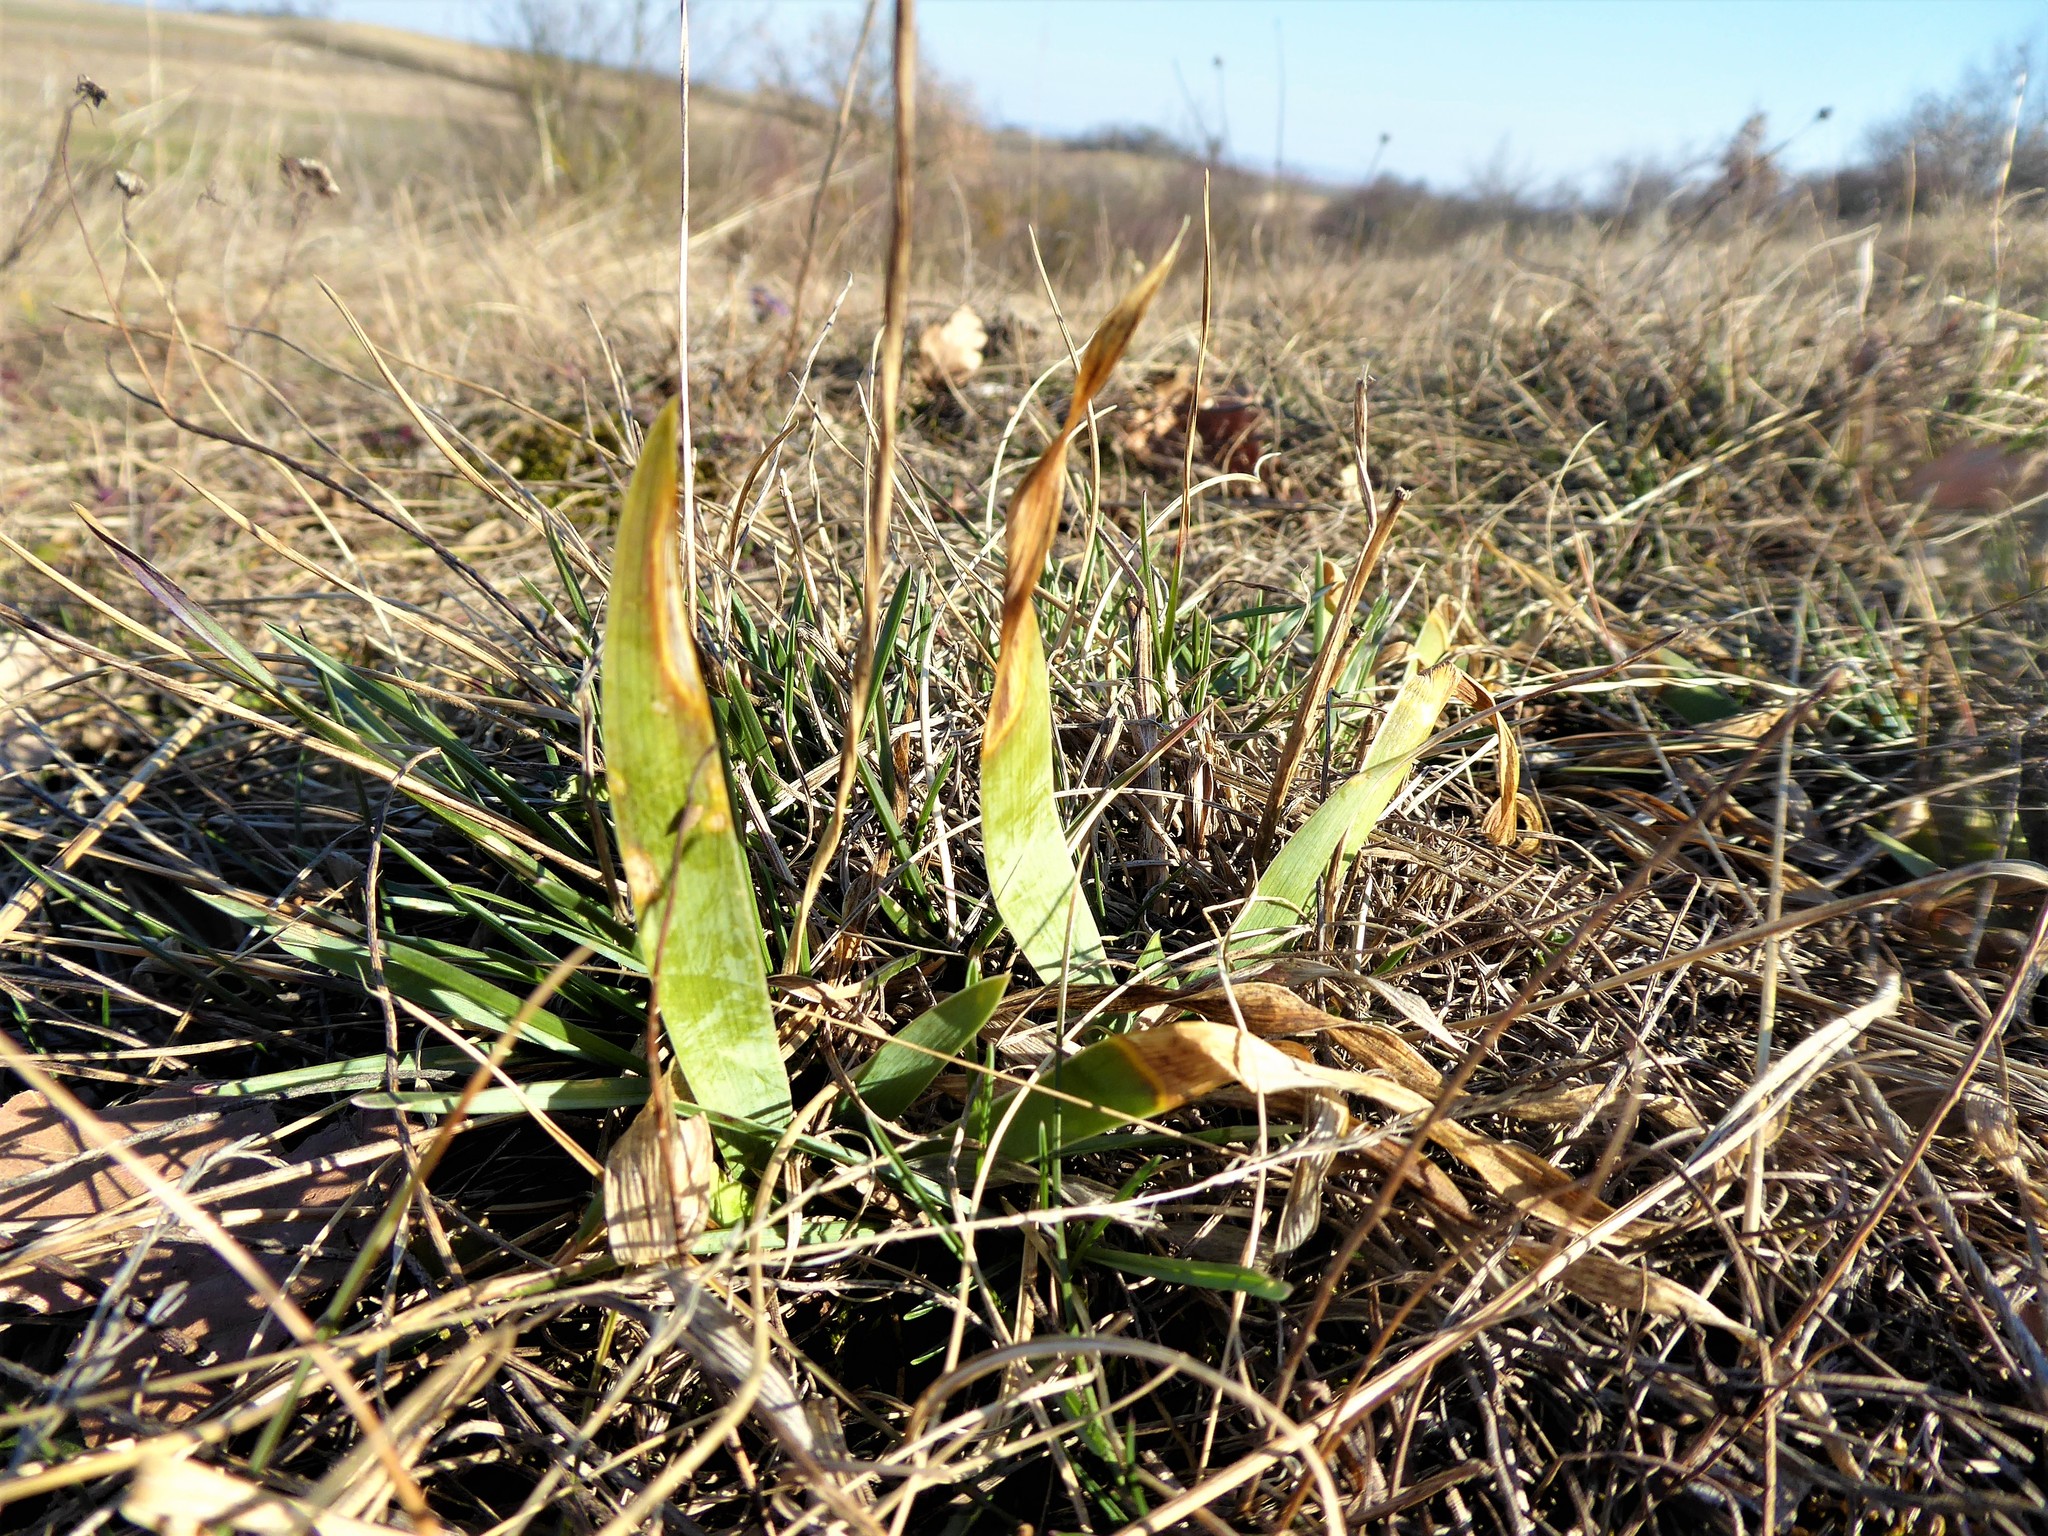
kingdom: Plantae
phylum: Tracheophyta
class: Liliopsida
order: Asparagales
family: Iridaceae
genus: Iris
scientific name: Iris pumila
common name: Dwarf iris
